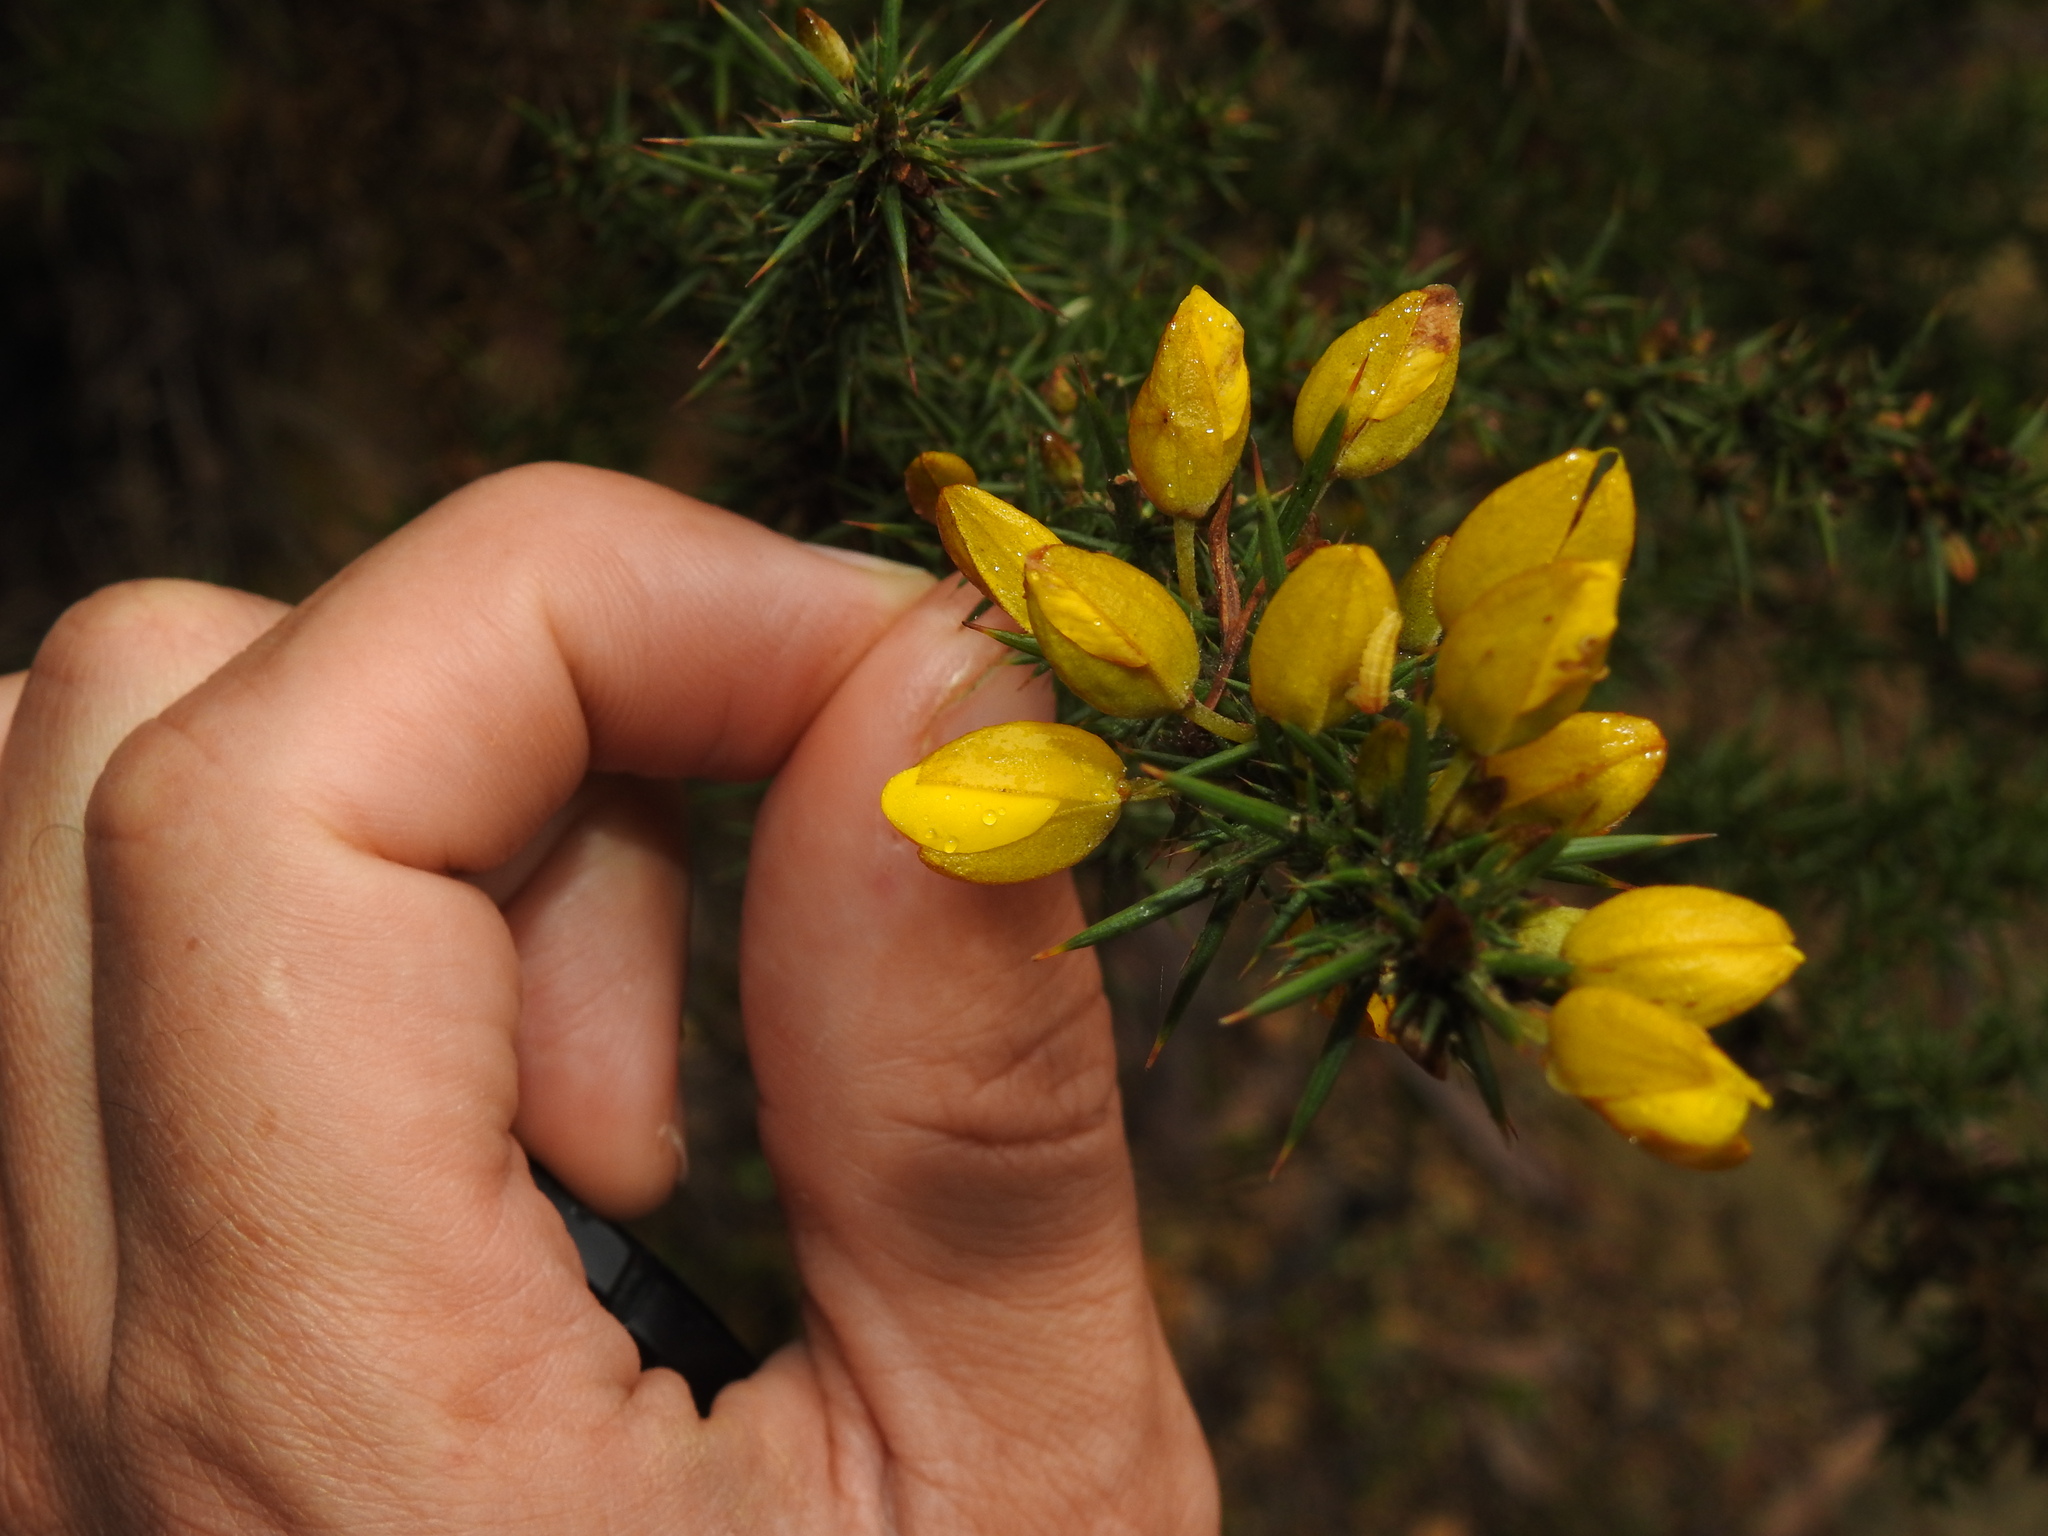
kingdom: Plantae
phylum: Tracheophyta
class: Magnoliopsida
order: Fabales
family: Fabaceae
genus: Ulex
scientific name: Ulex jussiaei
